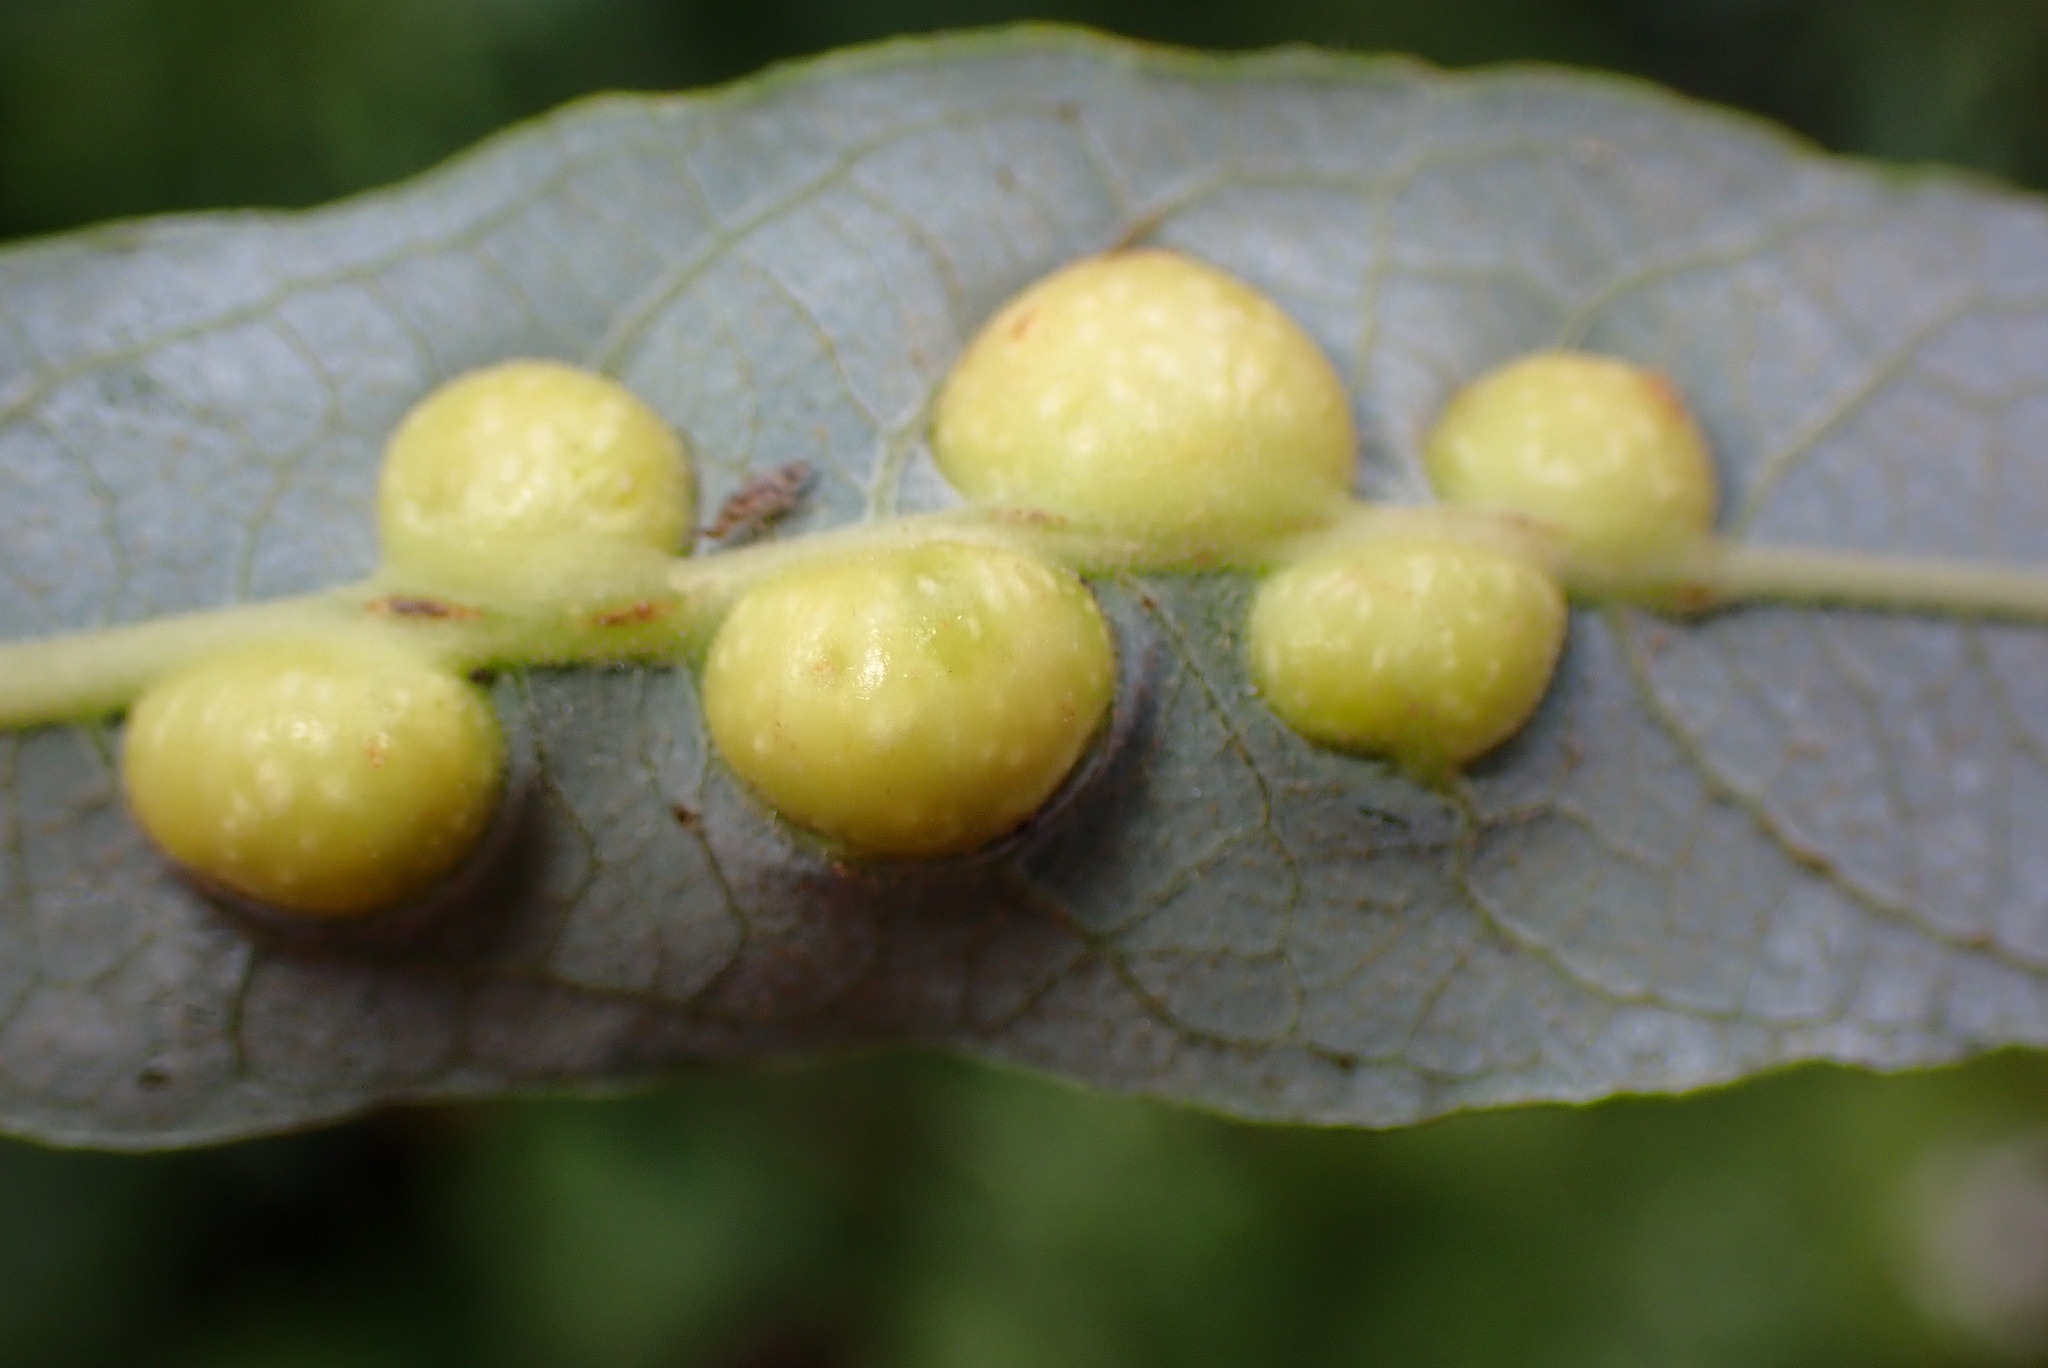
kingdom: Animalia
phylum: Arthropoda
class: Insecta
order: Hymenoptera
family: Tenthredinidae
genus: Euura
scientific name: Euura
